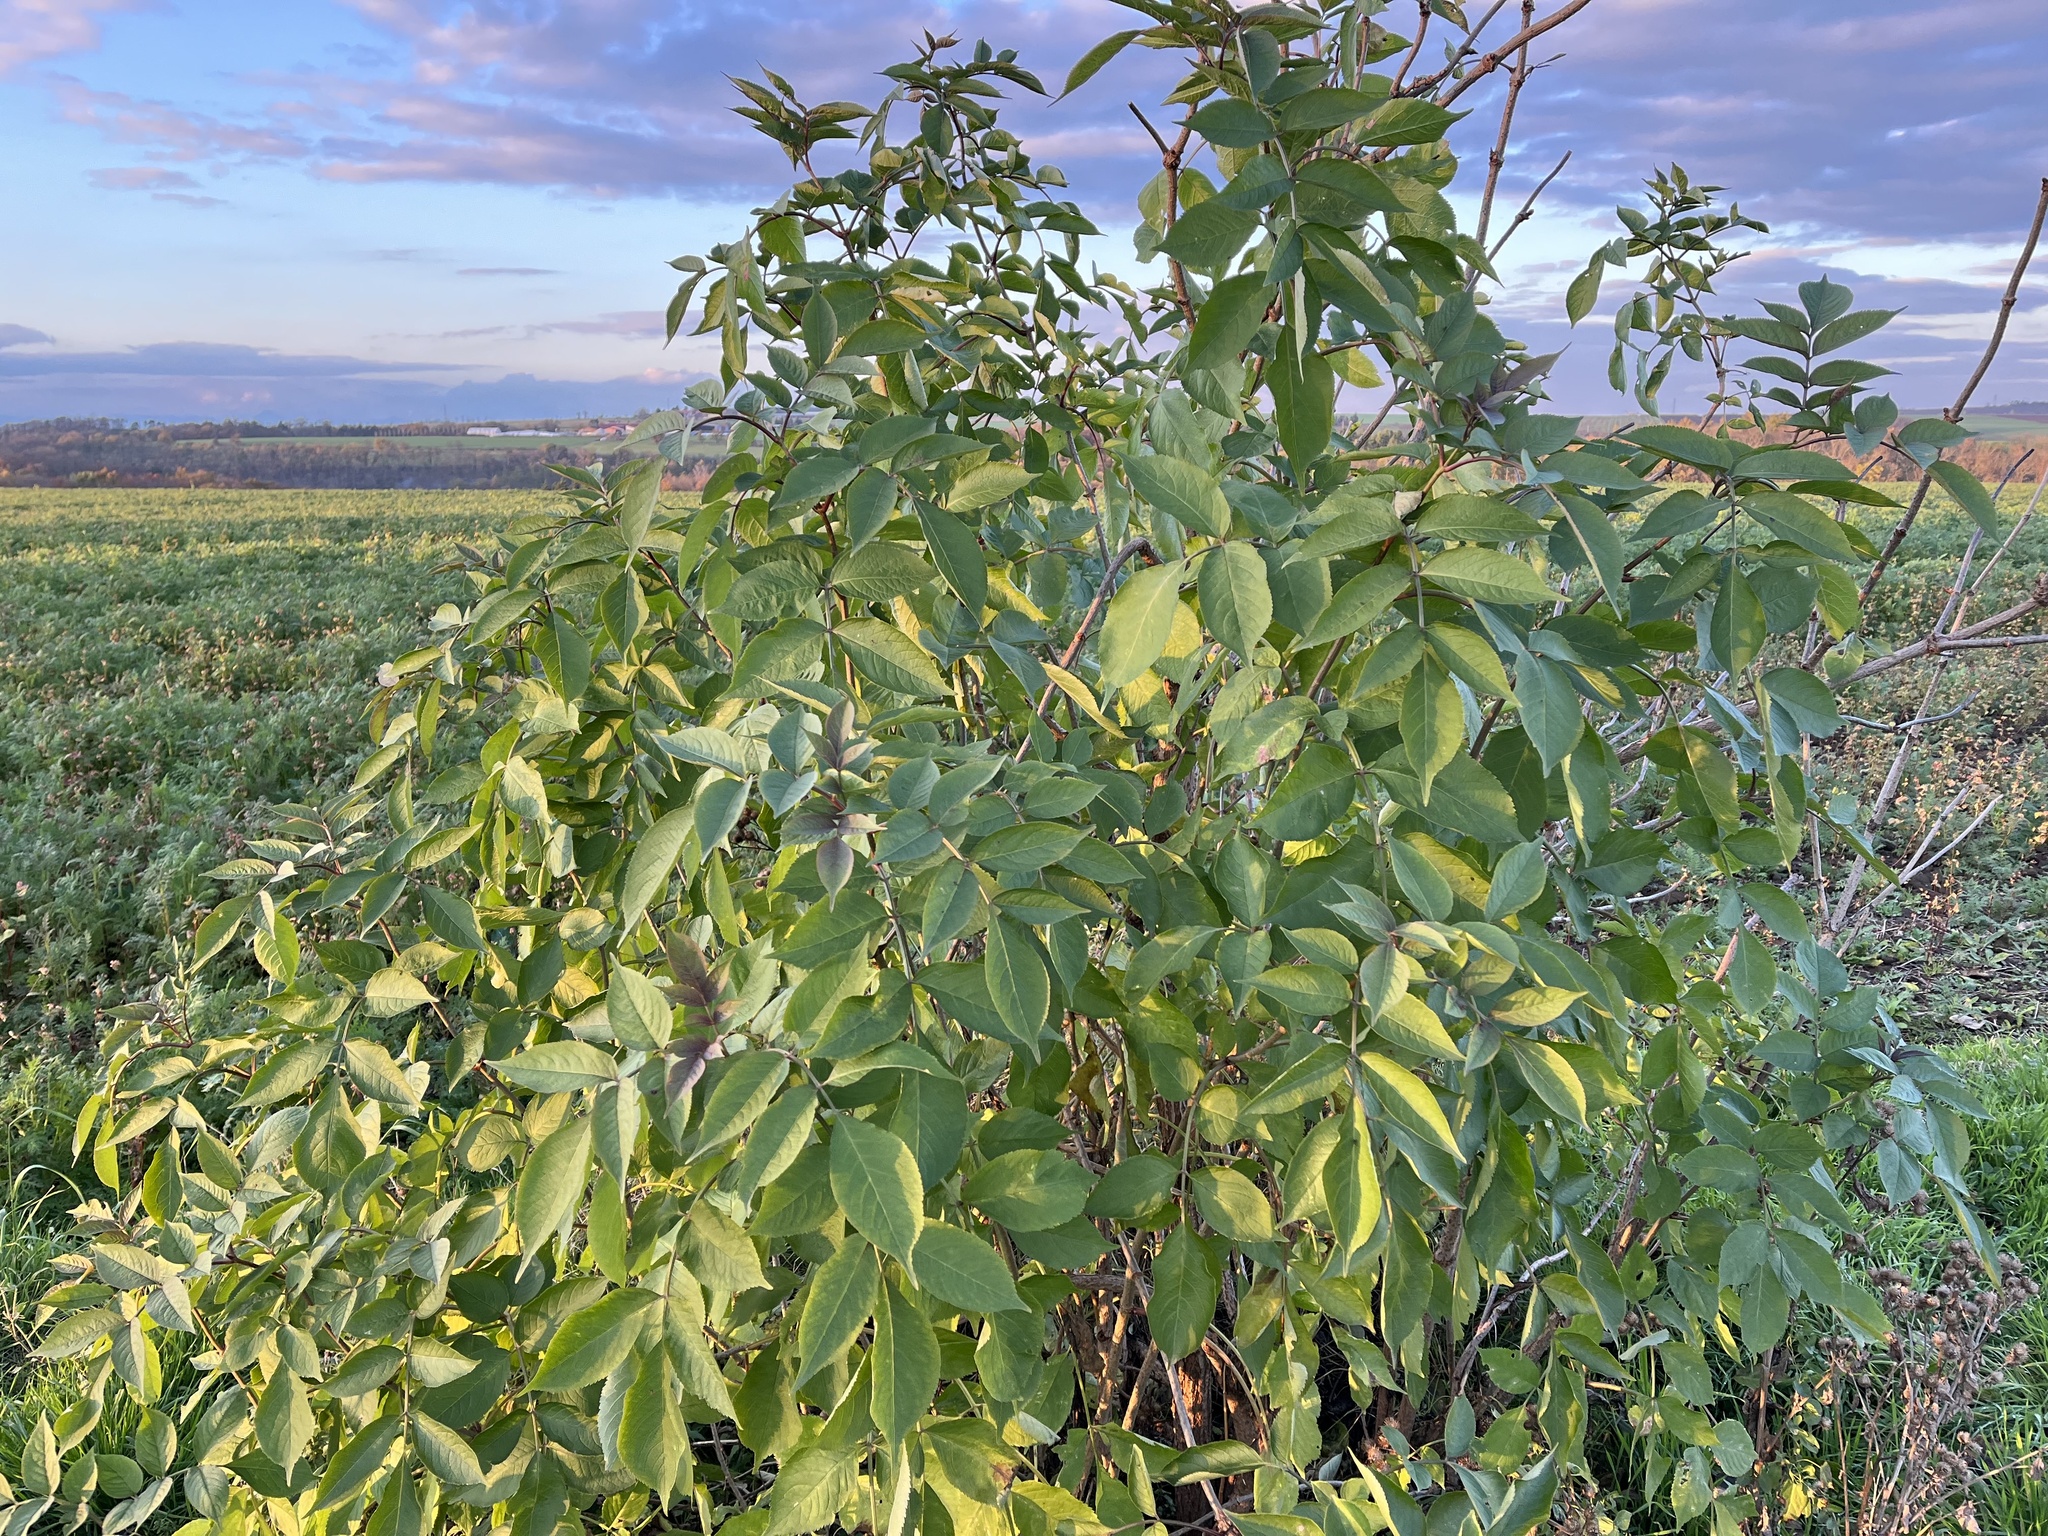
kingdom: Plantae
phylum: Tracheophyta
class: Magnoliopsida
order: Dipsacales
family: Viburnaceae
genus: Sambucus
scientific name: Sambucus nigra
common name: Elder
